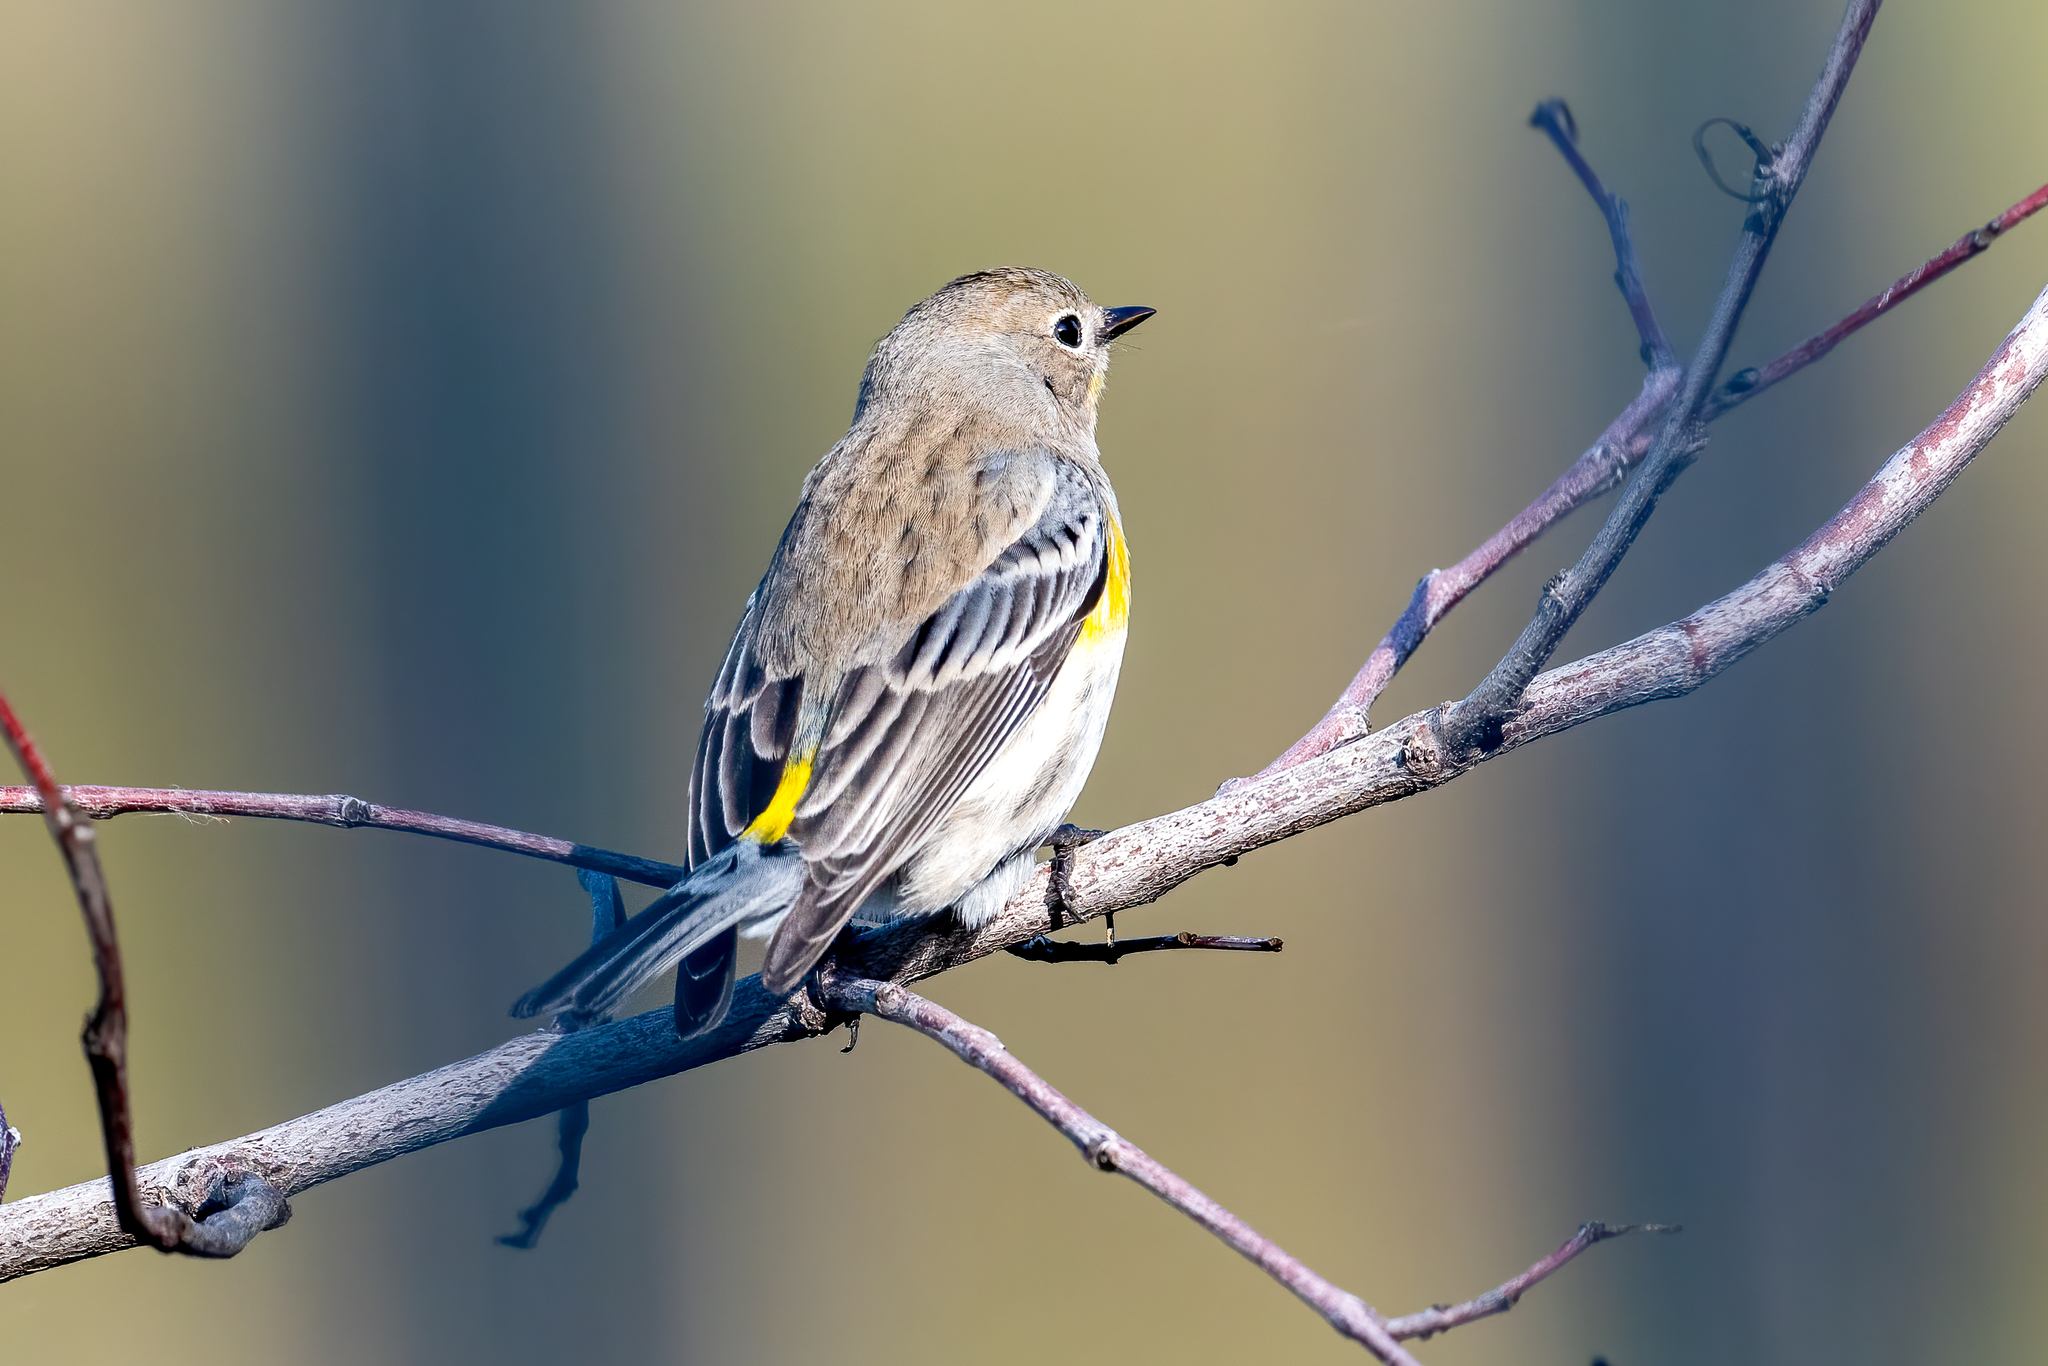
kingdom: Animalia
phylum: Chordata
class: Aves
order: Passeriformes
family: Parulidae
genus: Setophaga
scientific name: Setophaga coronata
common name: Myrtle warbler
